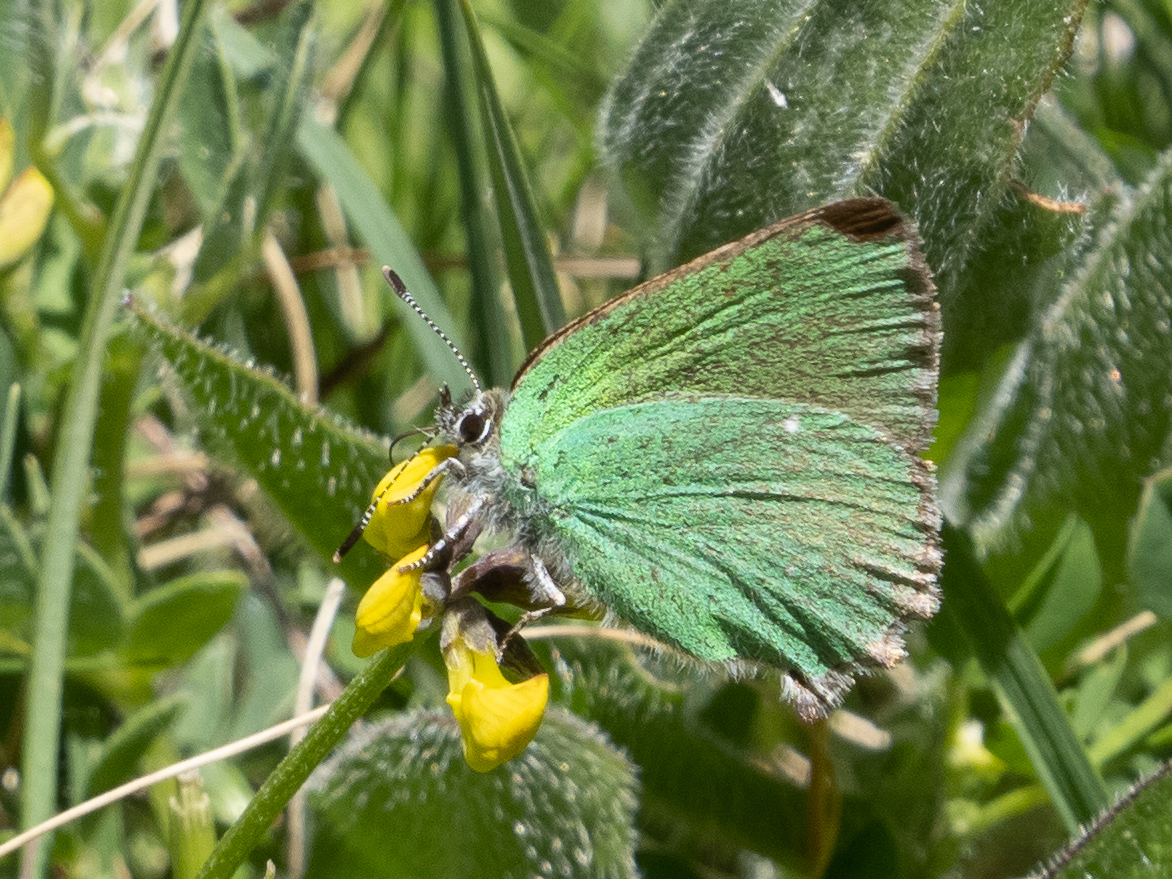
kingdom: Animalia
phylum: Arthropoda
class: Insecta
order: Lepidoptera
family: Lycaenidae
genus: Callophrys
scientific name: Callophrys rubi
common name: Green hairstreak
